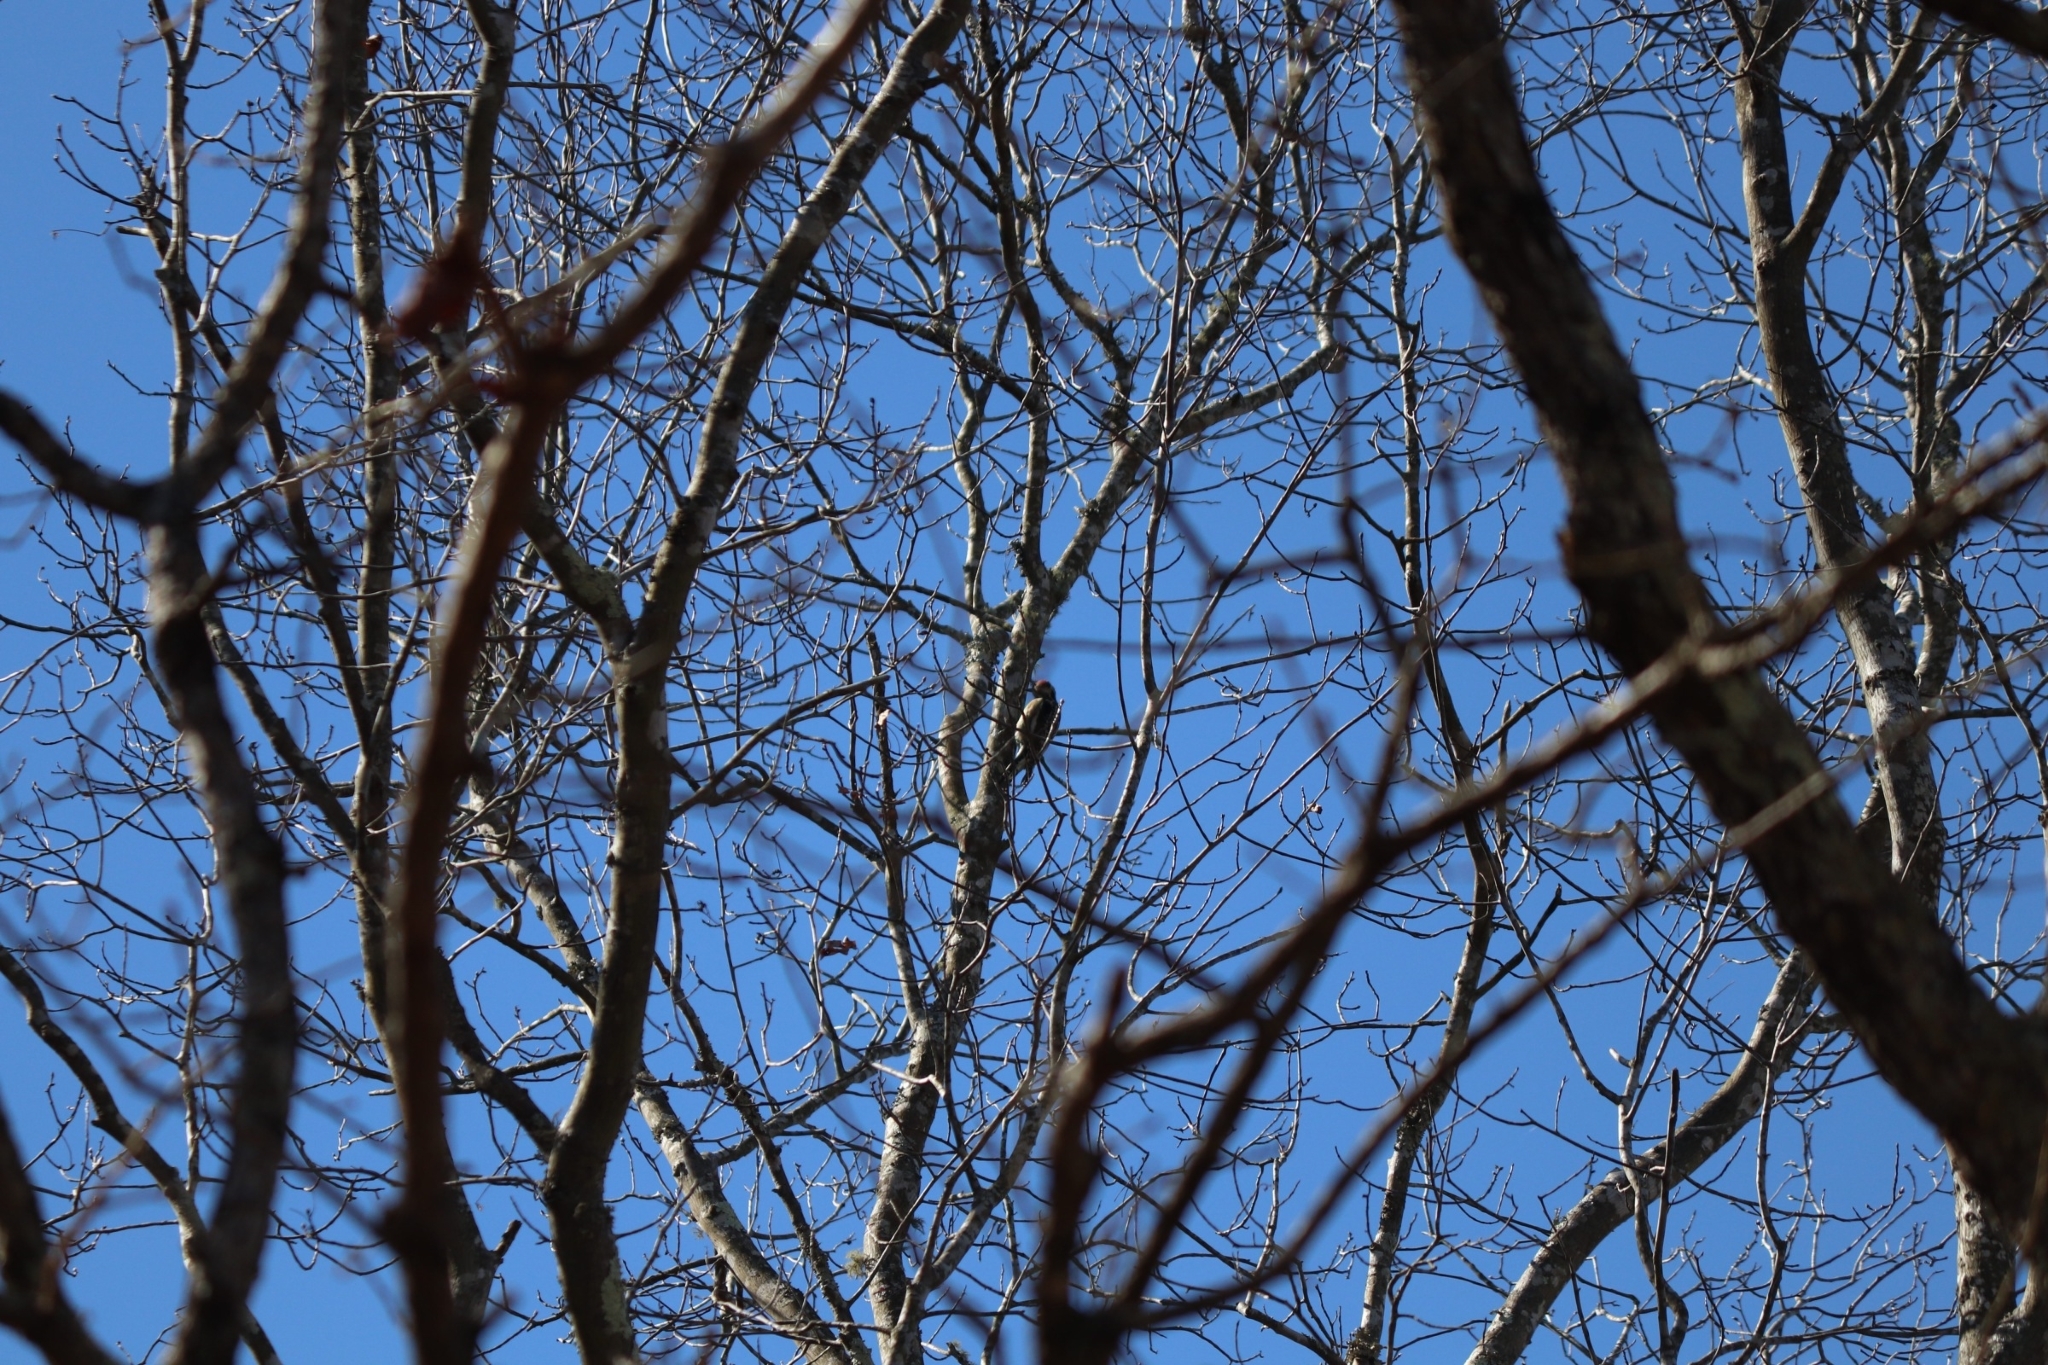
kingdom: Animalia
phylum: Chordata
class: Aves
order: Piciformes
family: Picidae
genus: Sphyrapicus
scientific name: Sphyrapicus varius
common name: Yellow-bellied sapsucker
